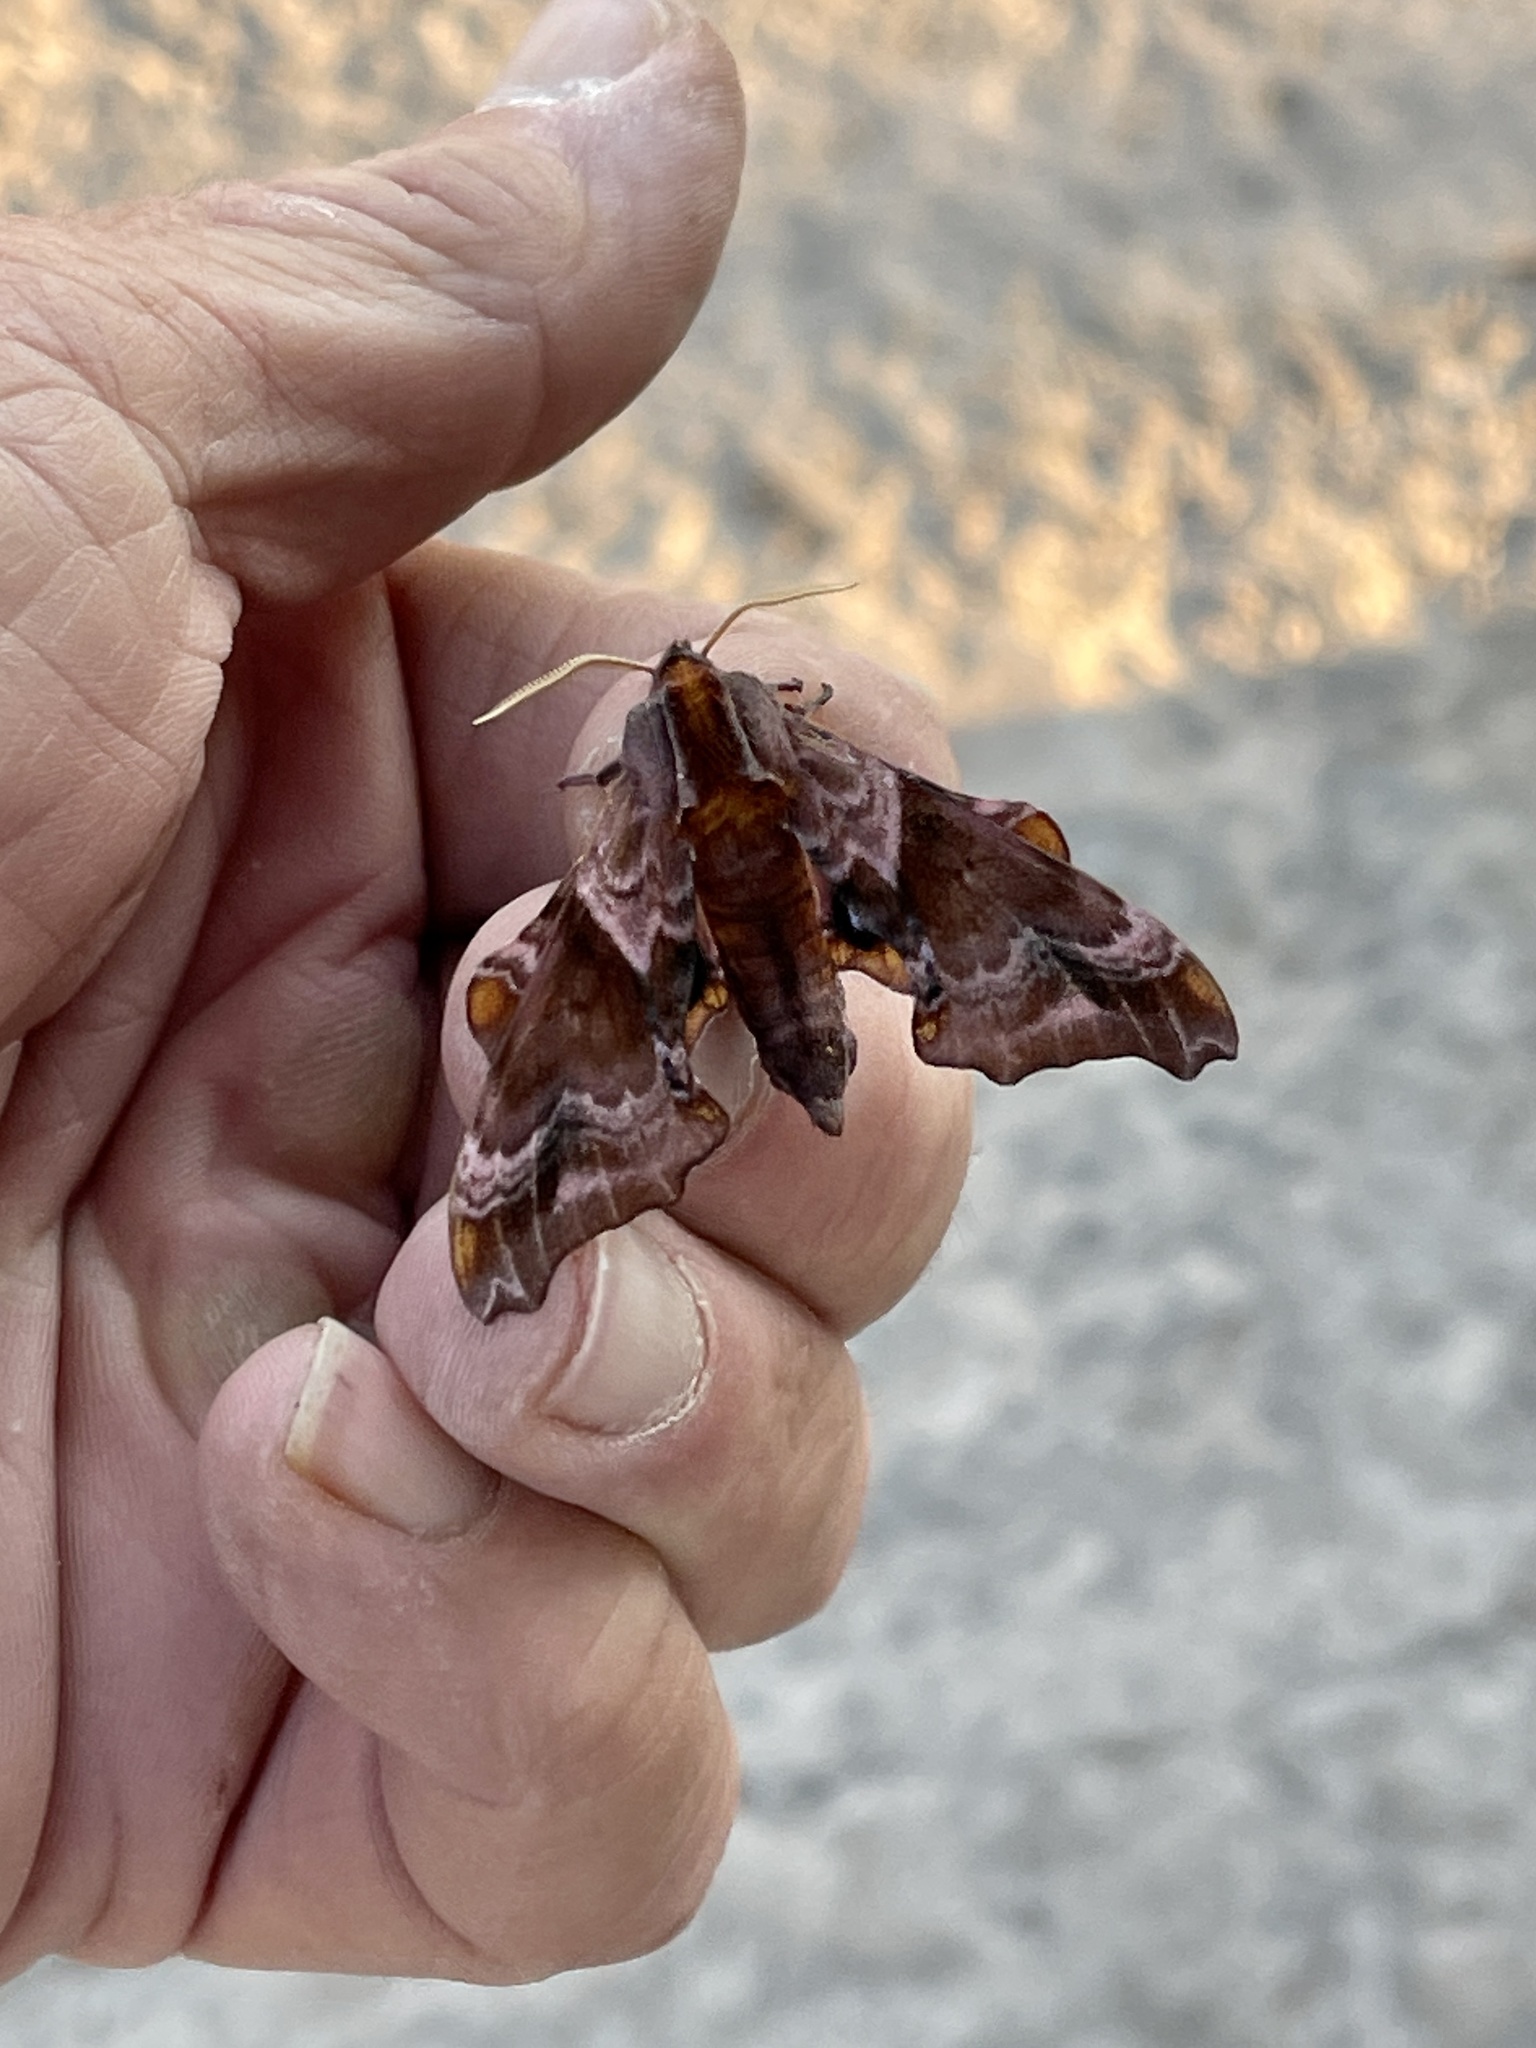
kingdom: Animalia
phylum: Arthropoda
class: Insecta
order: Lepidoptera
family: Sphingidae
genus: Paonias
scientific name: Paonias myops
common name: Small-eyed sphinx
